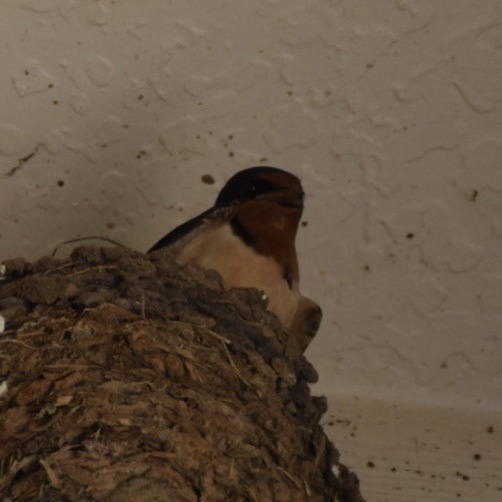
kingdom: Animalia
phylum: Chordata
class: Aves
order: Passeriformes
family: Hirundinidae
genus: Hirundo
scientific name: Hirundo rustica
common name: Barn swallow
